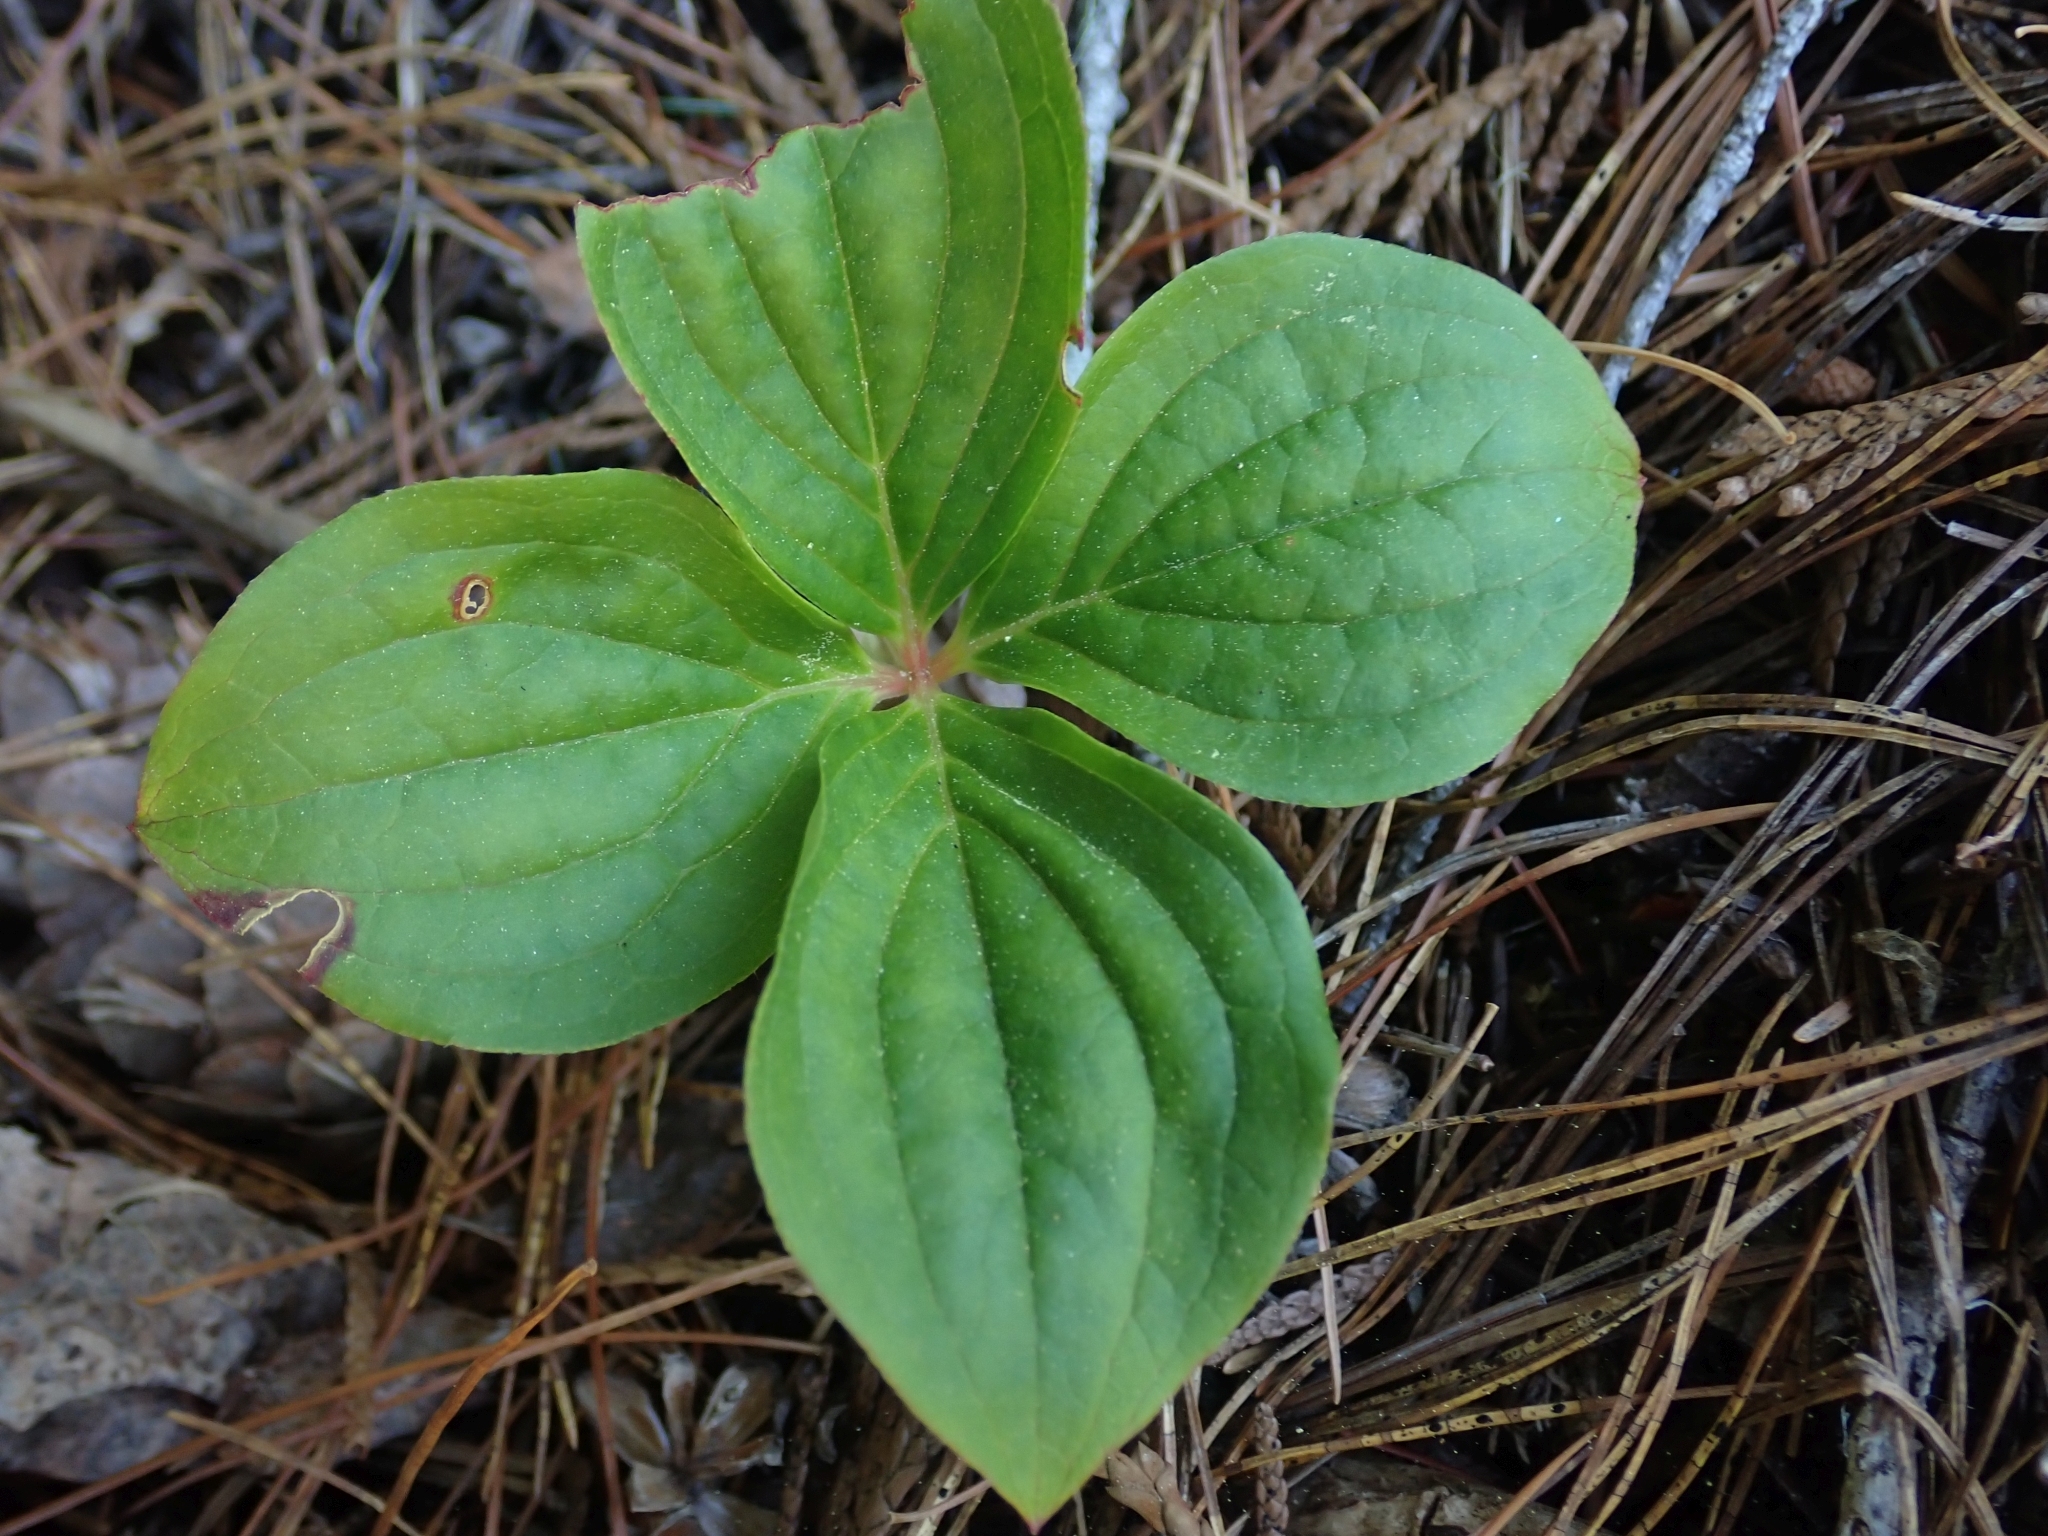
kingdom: Plantae
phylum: Tracheophyta
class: Magnoliopsida
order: Cornales
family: Cornaceae
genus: Cornus
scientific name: Cornus unalaschkensis
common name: Alaska bunchberry
